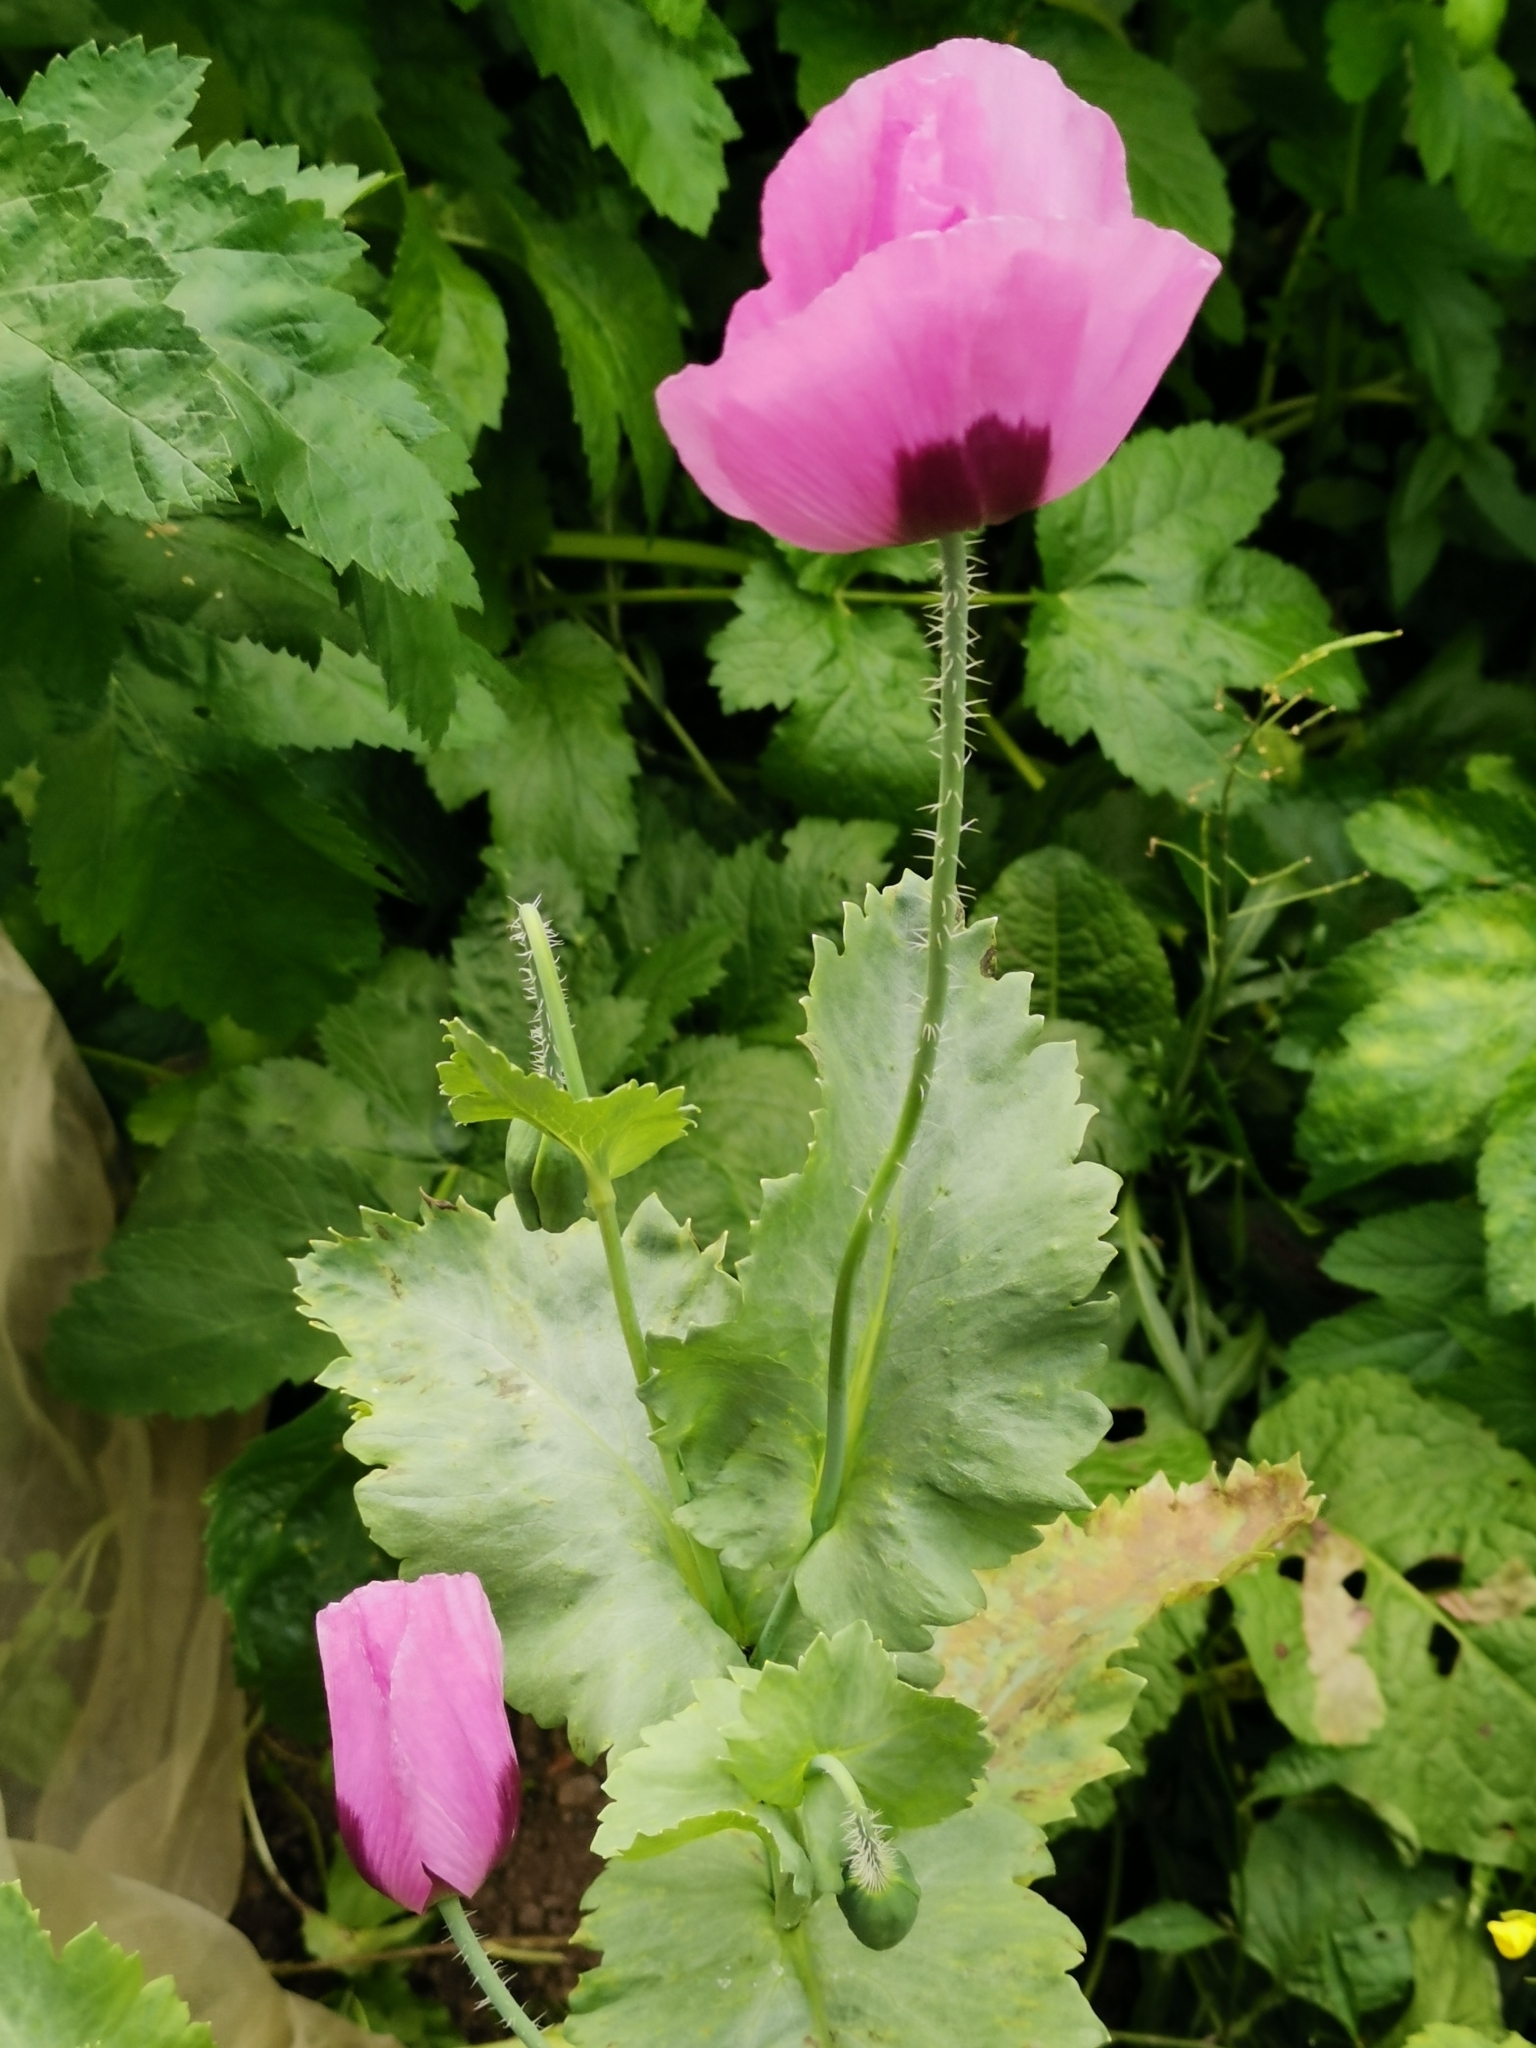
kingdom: Plantae
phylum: Tracheophyta
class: Magnoliopsida
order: Ranunculales
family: Papaveraceae
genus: Papaver
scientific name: Papaver somniferum
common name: Opium poppy
